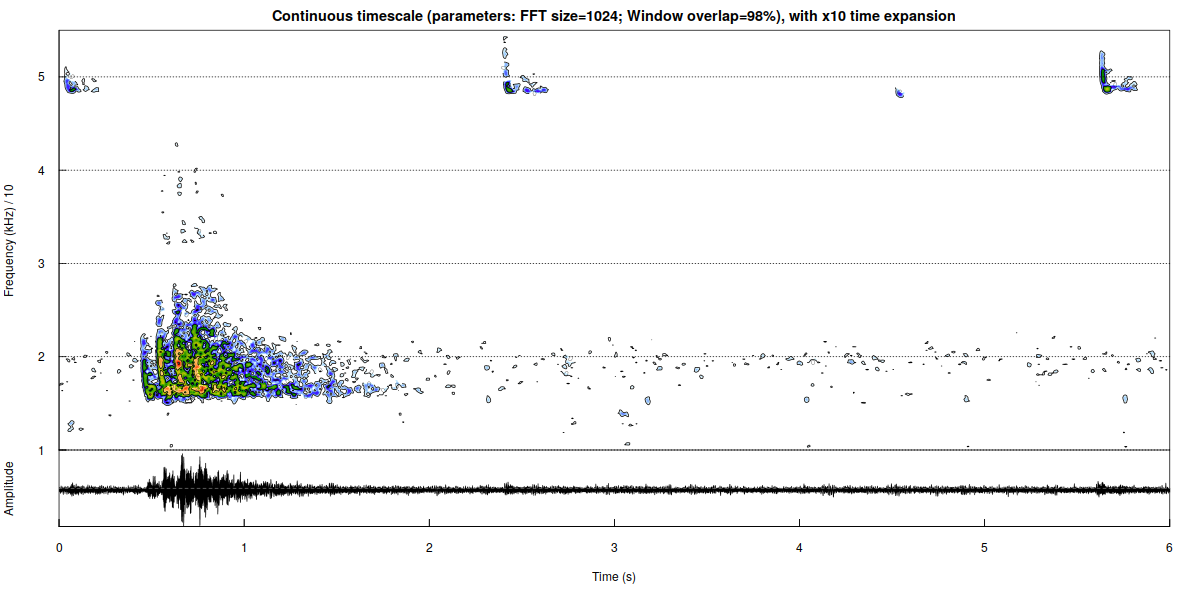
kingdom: Animalia
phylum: Chordata
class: Mammalia
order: Chiroptera
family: Vespertilionidae
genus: Pipistrellus
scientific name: Pipistrellus pipistrellus
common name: Common pipistrelle
